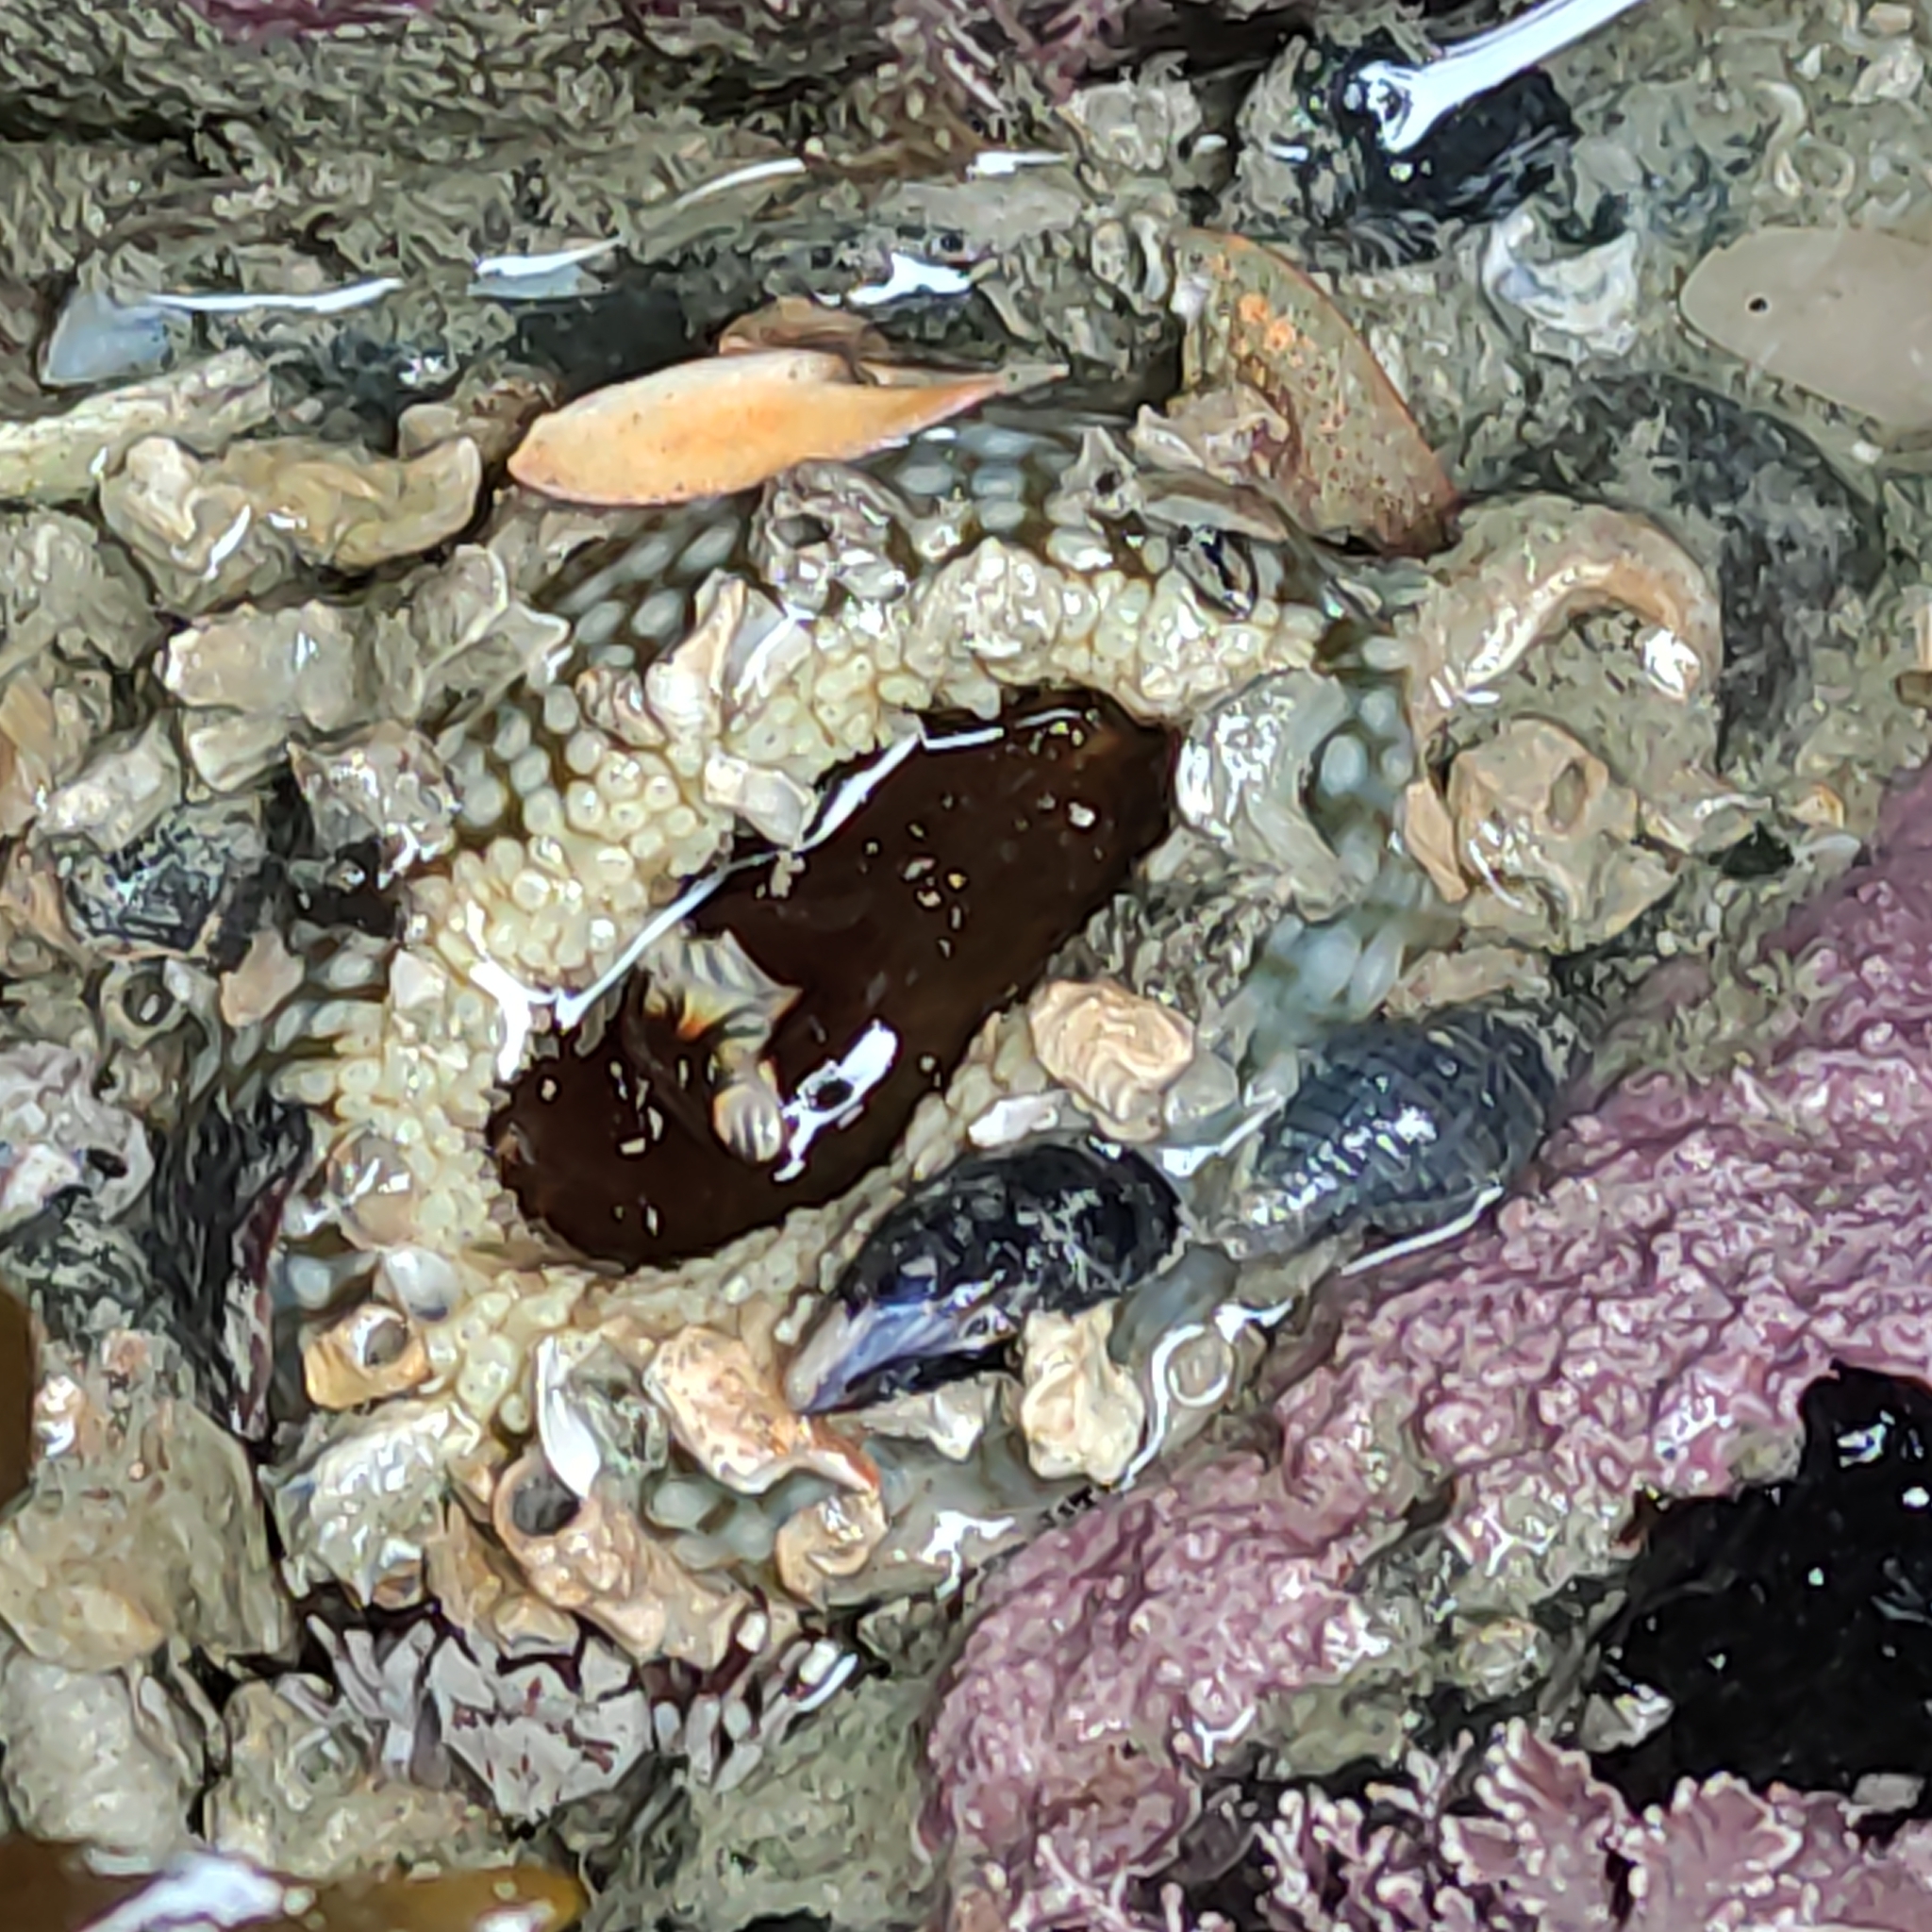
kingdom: Animalia
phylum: Mollusca
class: Gastropoda
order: Neogastropoda
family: Tudiclidae
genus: Buccinulum
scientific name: Buccinulum littorinoides
